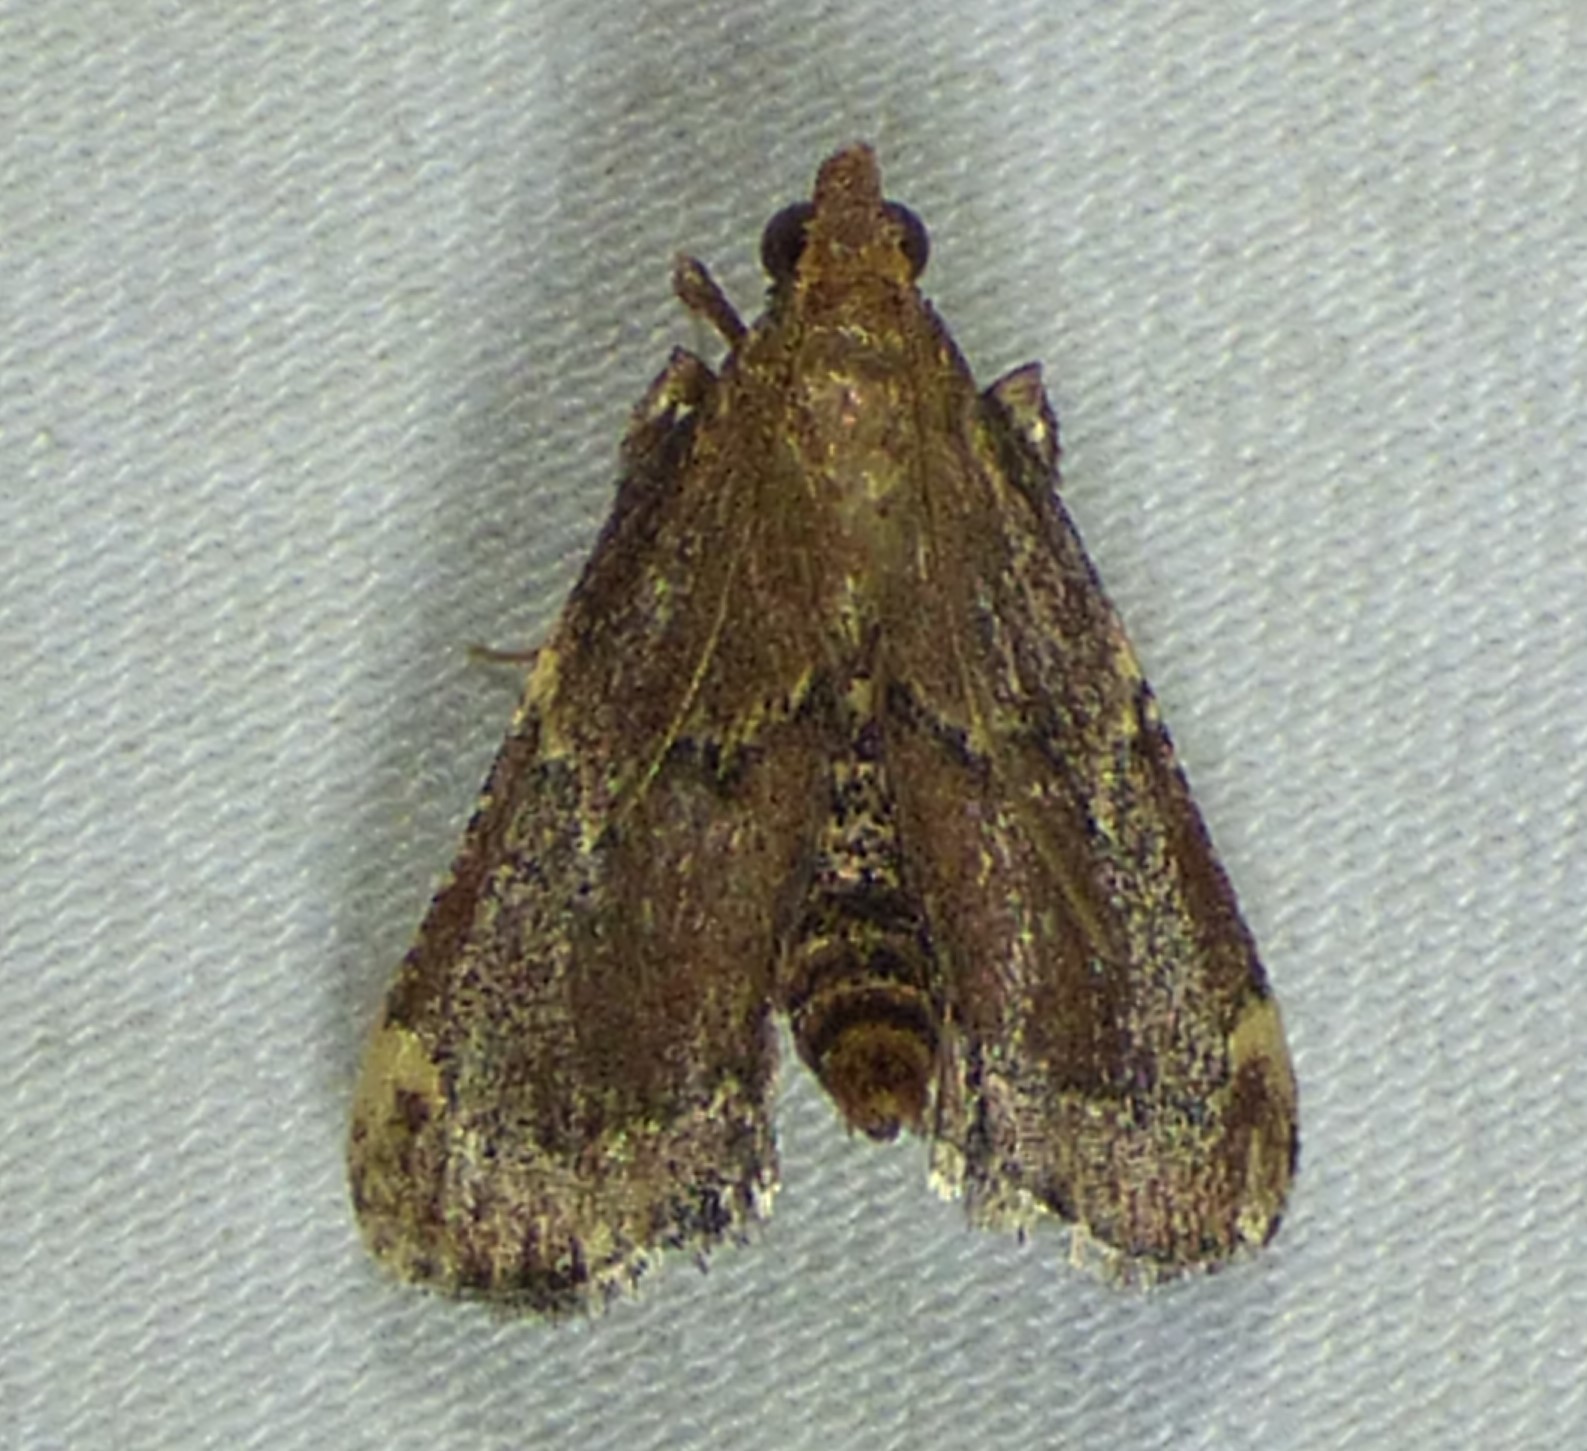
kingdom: Animalia
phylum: Arthropoda
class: Insecta
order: Lepidoptera
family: Pyralidae
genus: Hypsopygia
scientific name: Hypsopygia intermedialis
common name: Red-shawled moth
